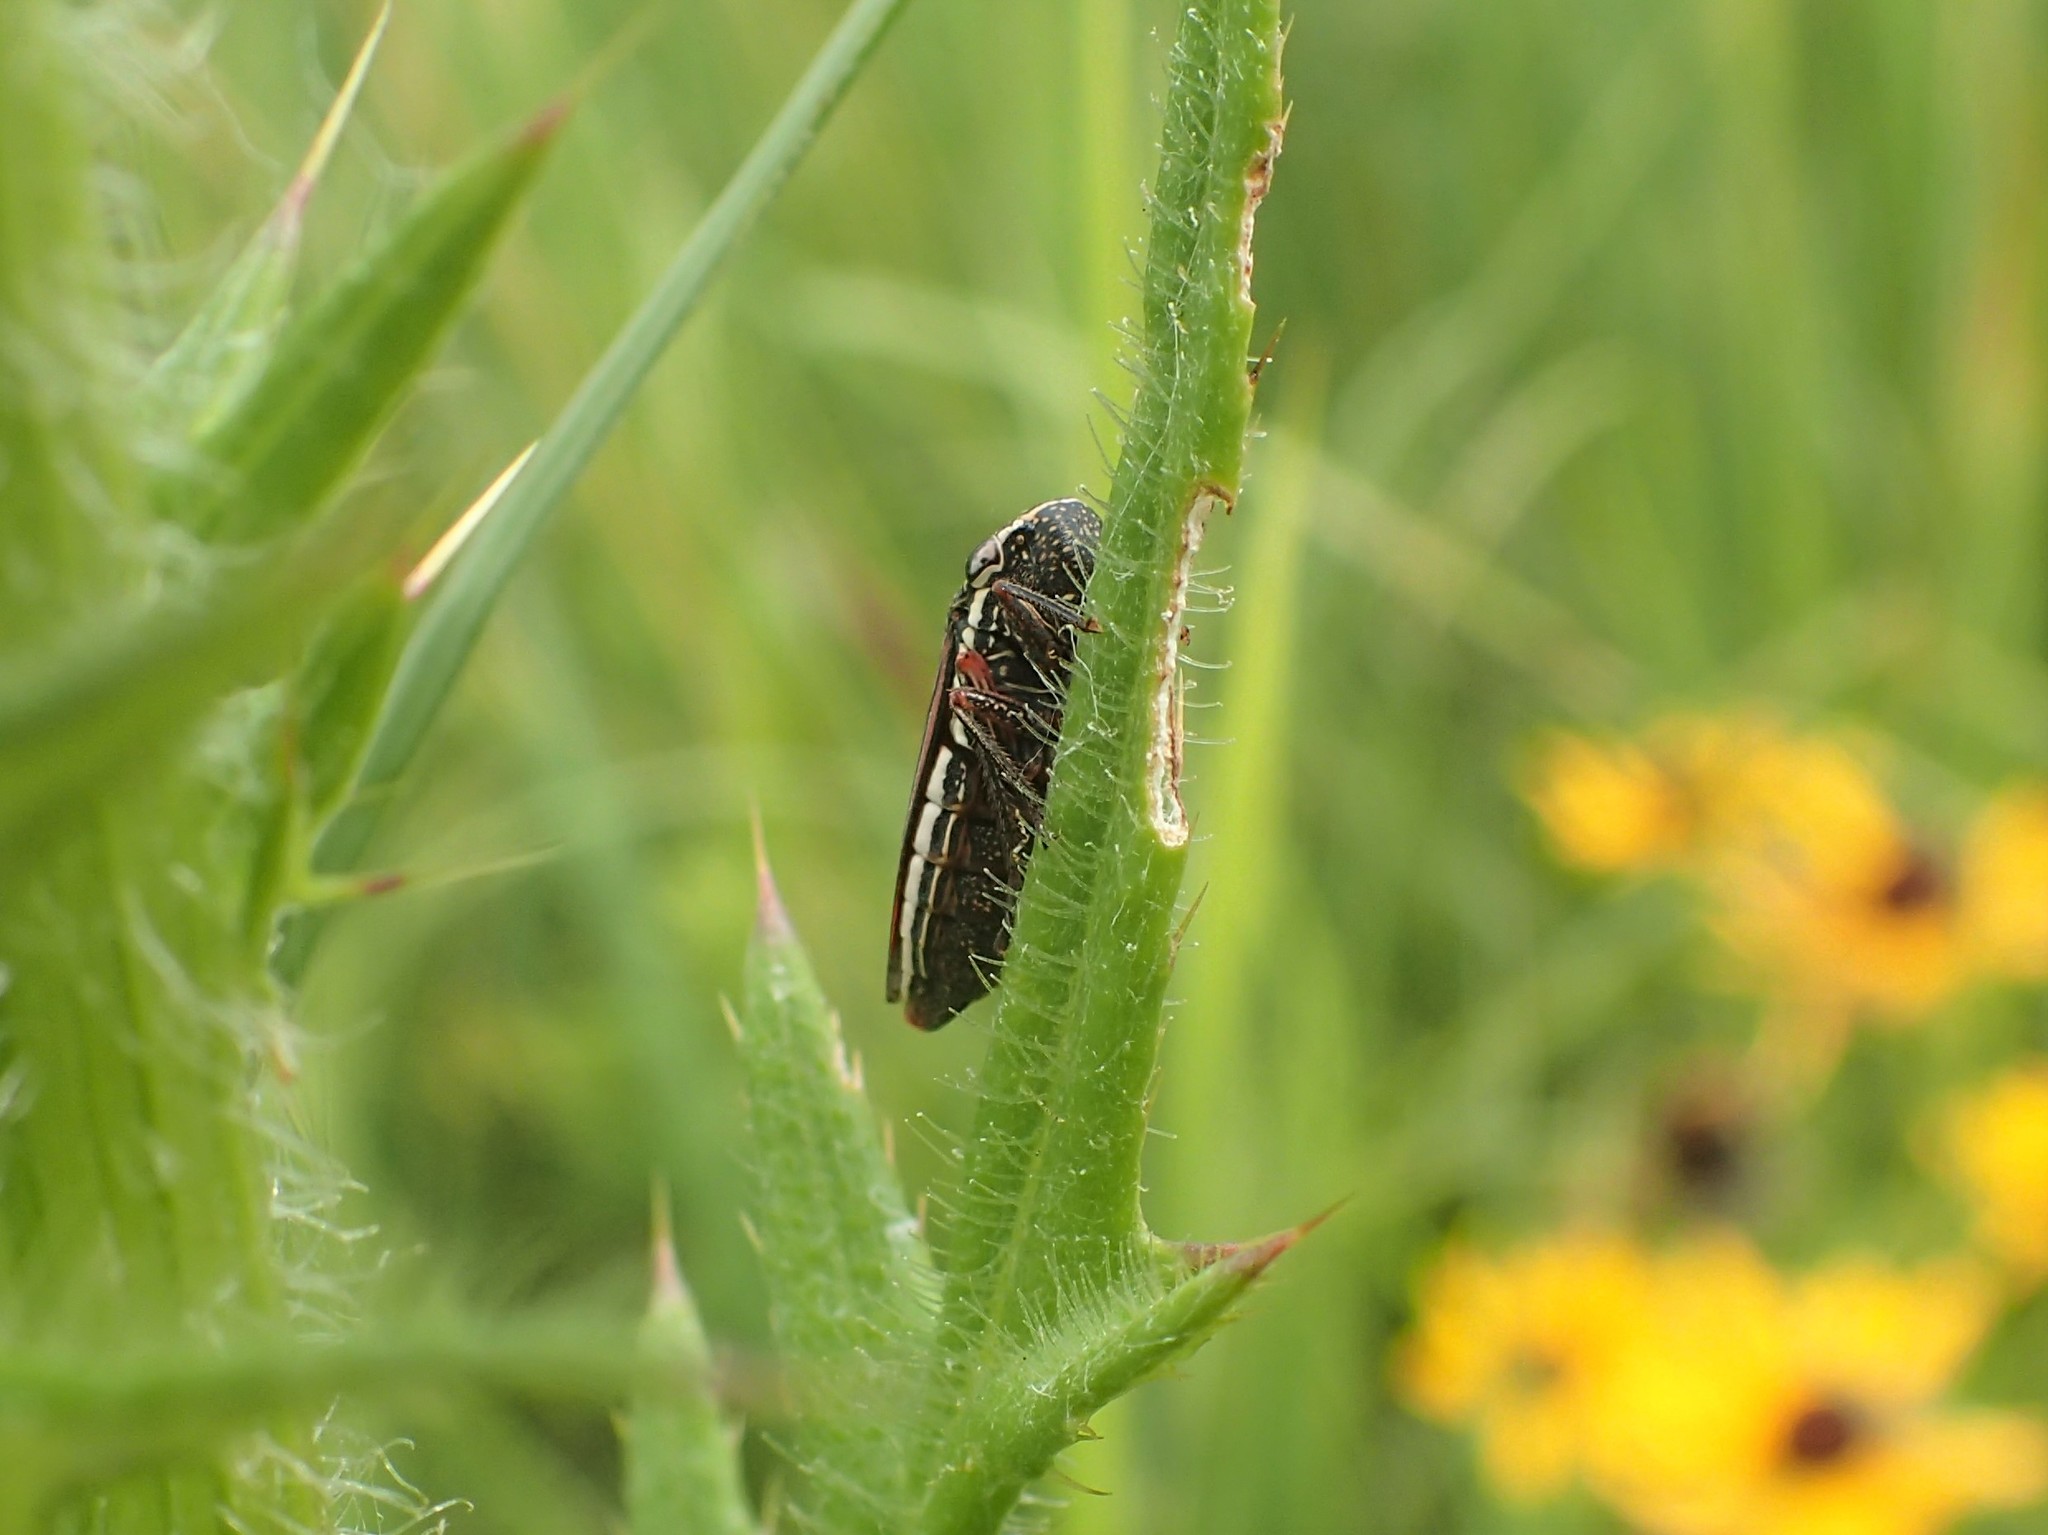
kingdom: Animalia
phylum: Arthropoda
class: Insecta
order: Hemiptera
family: Cicadellidae
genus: Cuerna
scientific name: Cuerna costalis
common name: Lateral-lined sharpshooter
